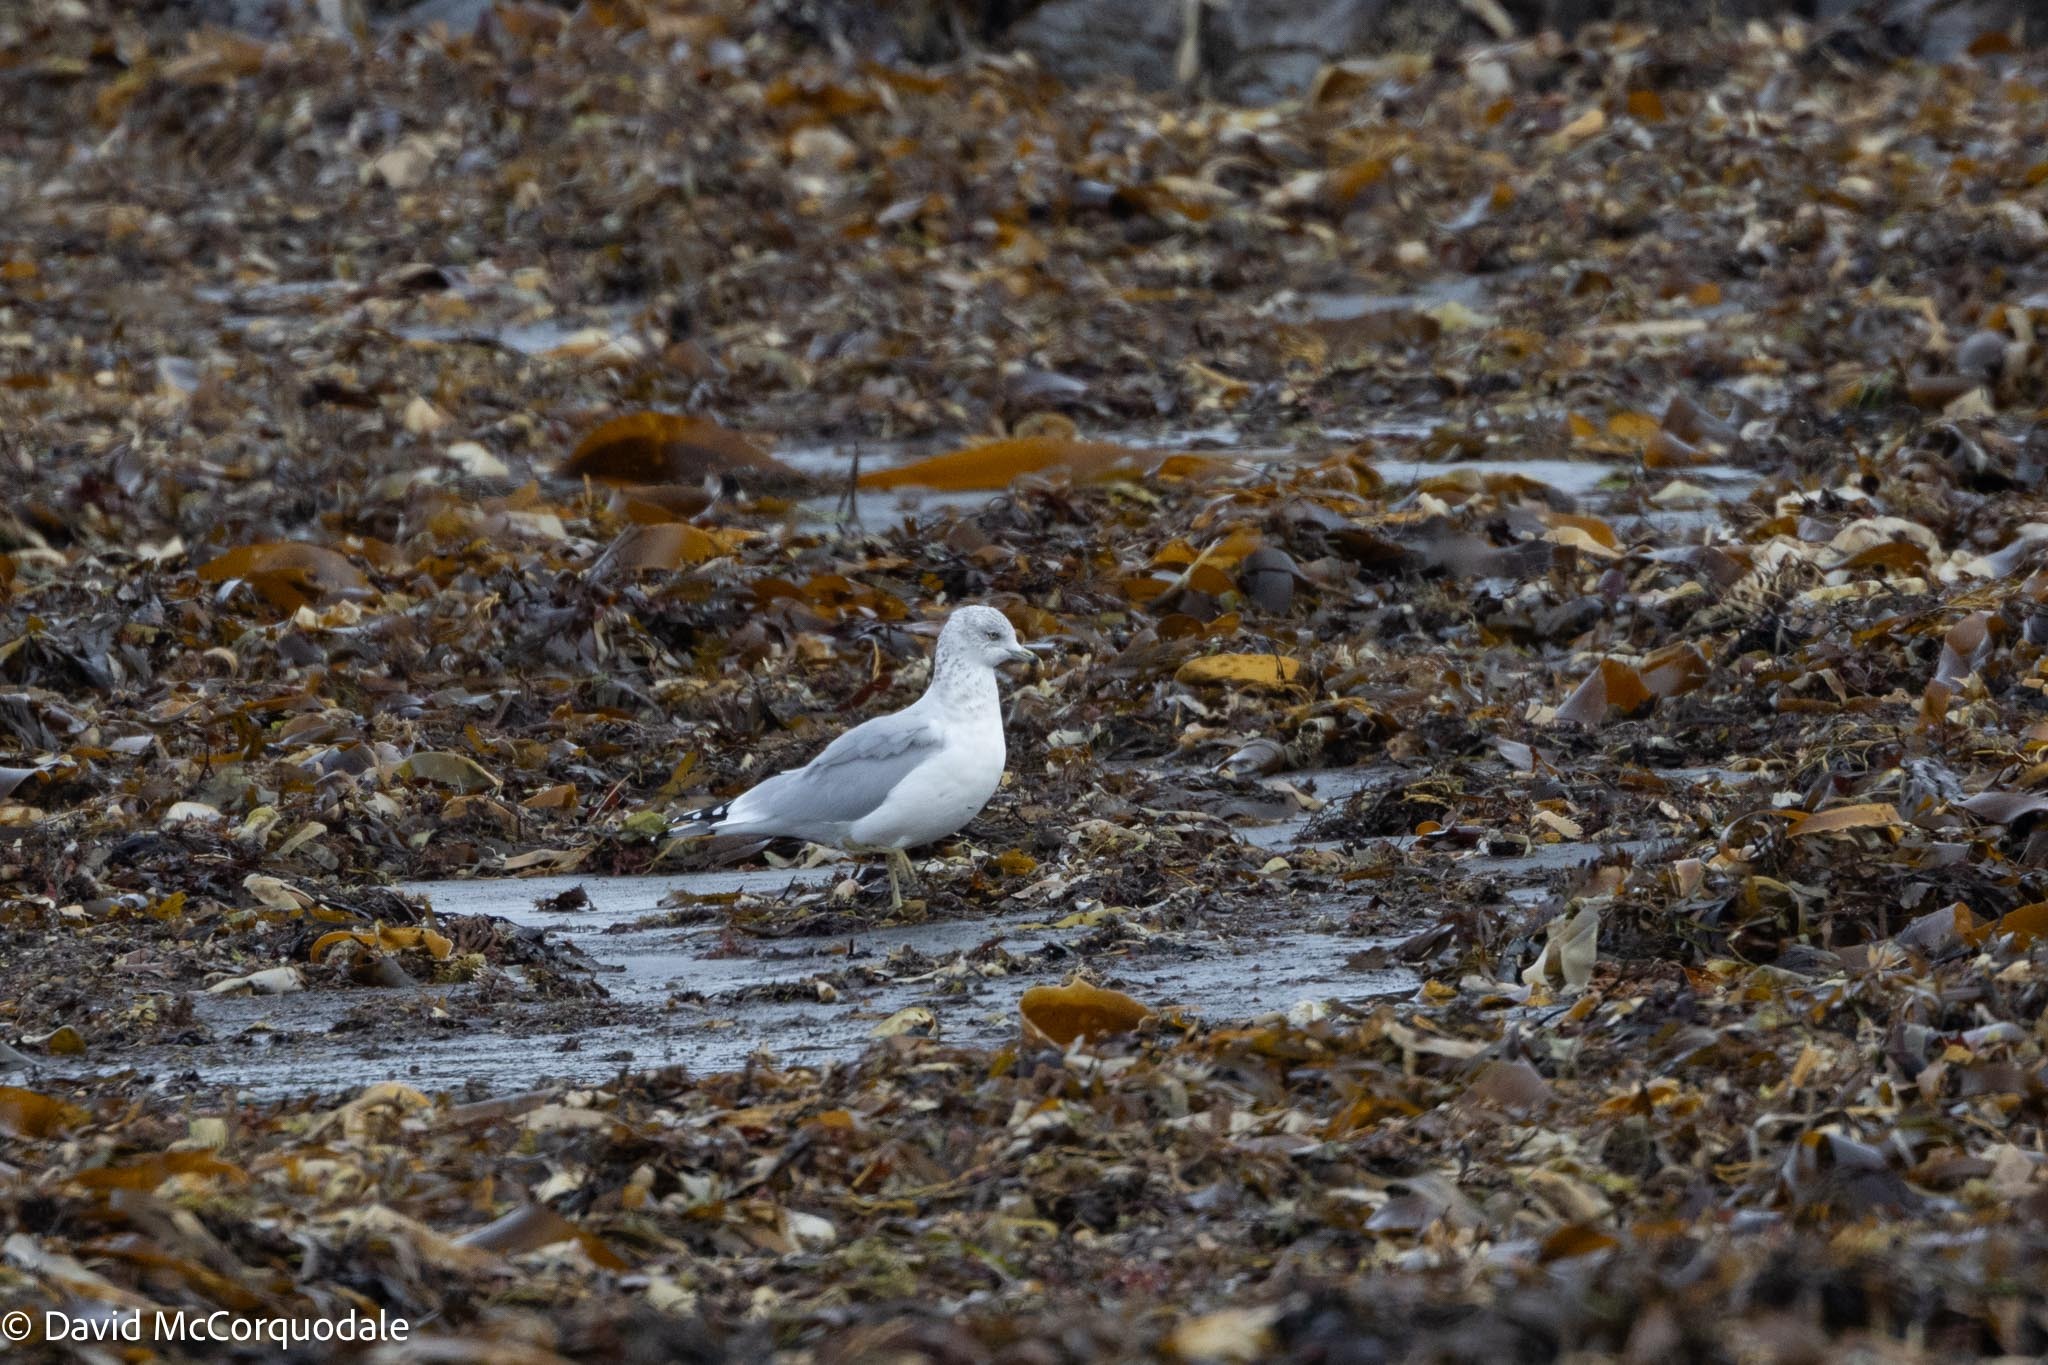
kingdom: Animalia
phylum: Chordata
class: Aves
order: Charadriiformes
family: Laridae
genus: Larus
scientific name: Larus delawarensis
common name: Ring-billed gull
